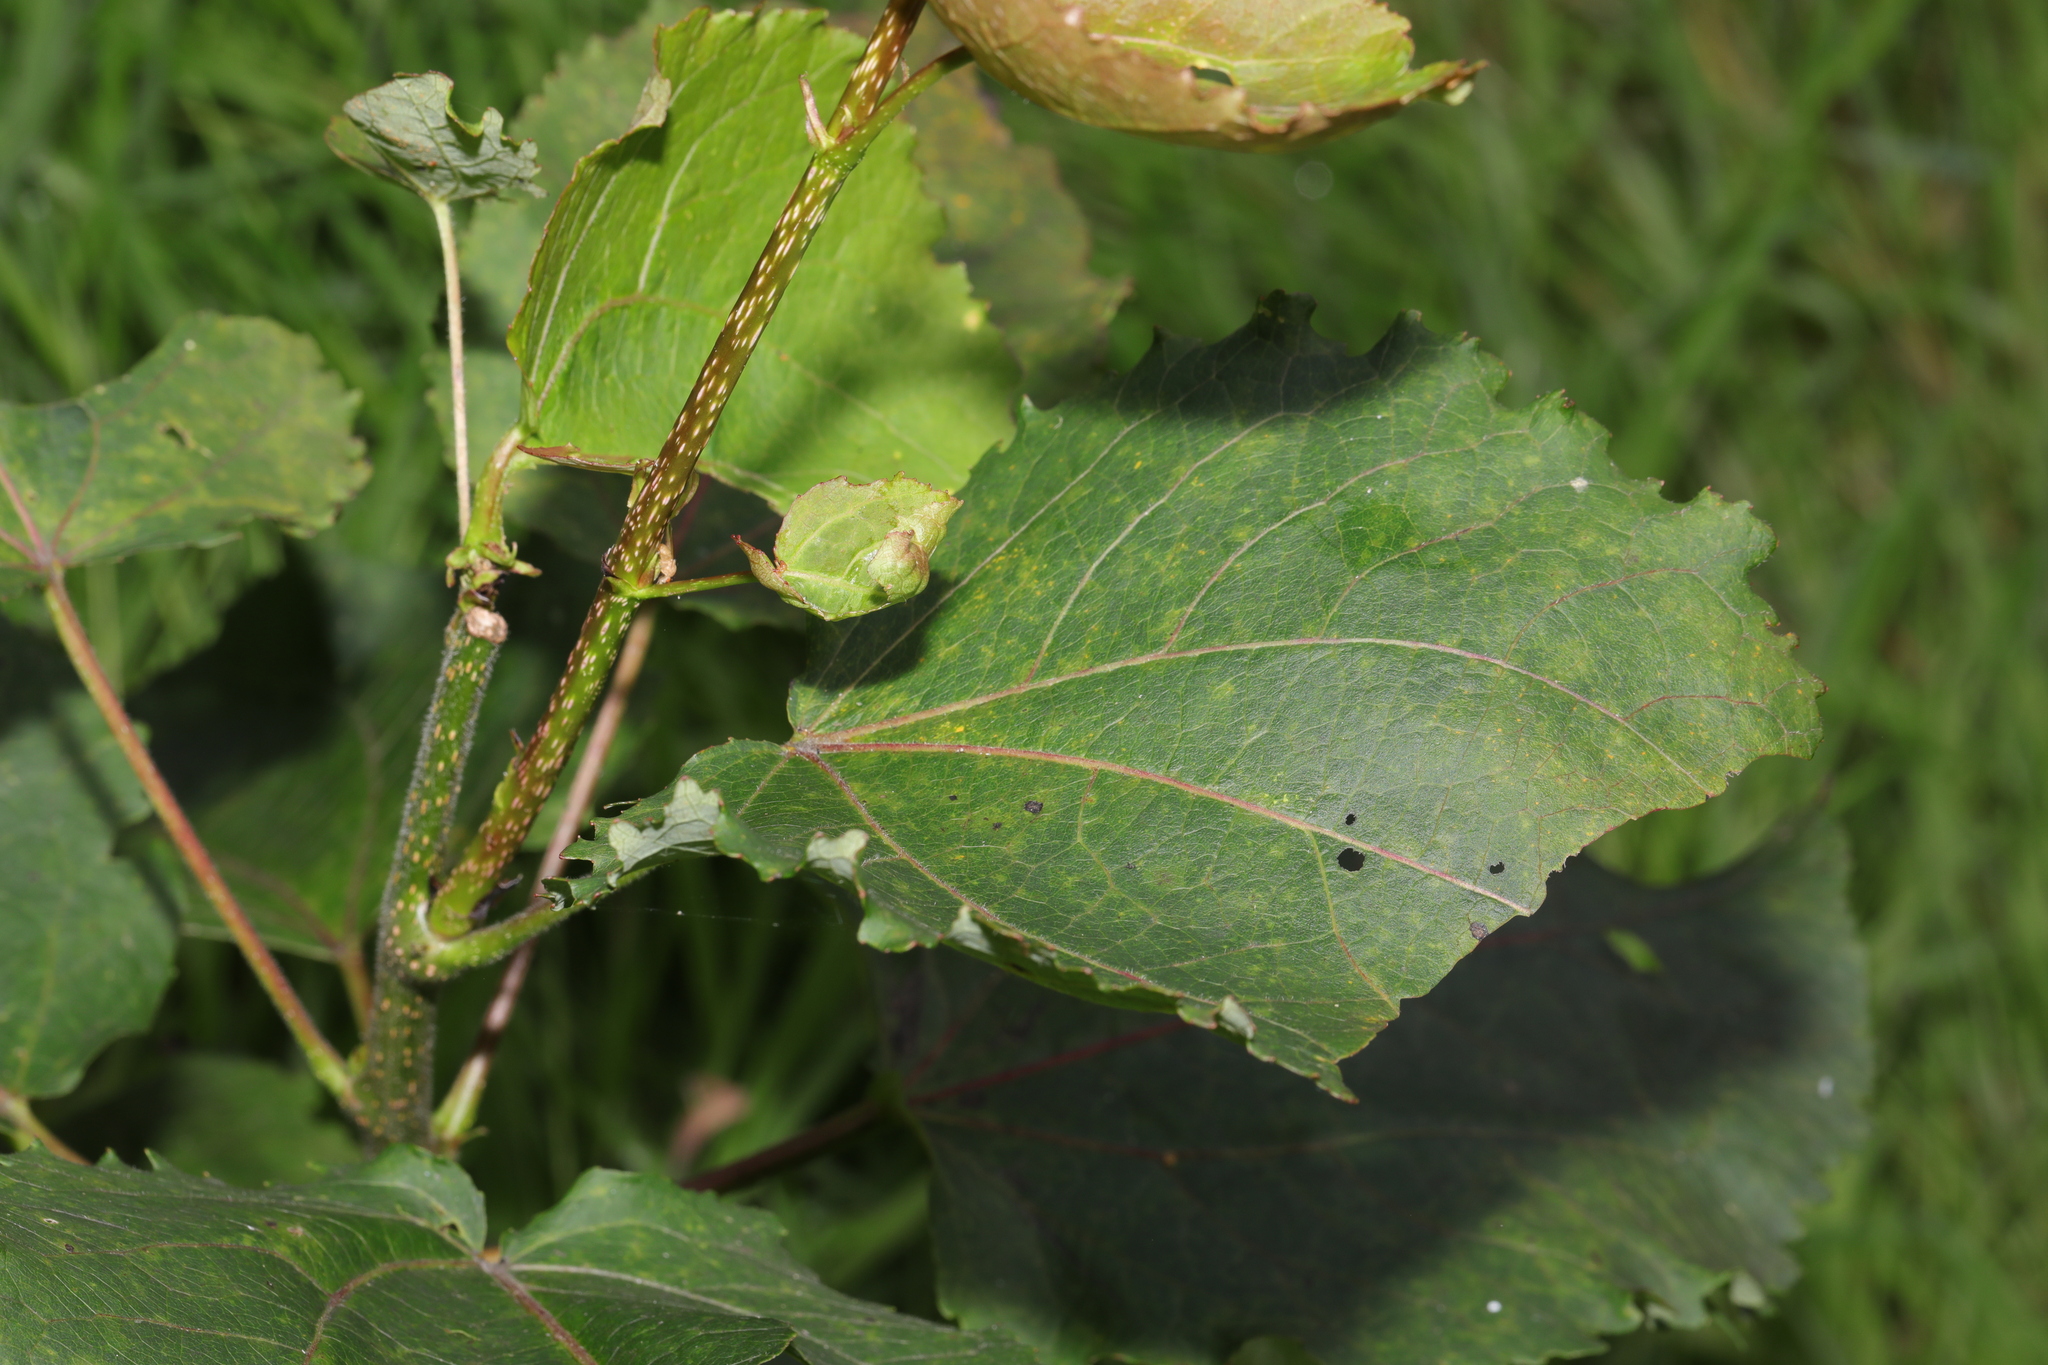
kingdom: Plantae
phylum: Tracheophyta
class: Magnoliopsida
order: Malpighiales
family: Salicaceae
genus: Populus
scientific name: Populus tremula
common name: European aspen
